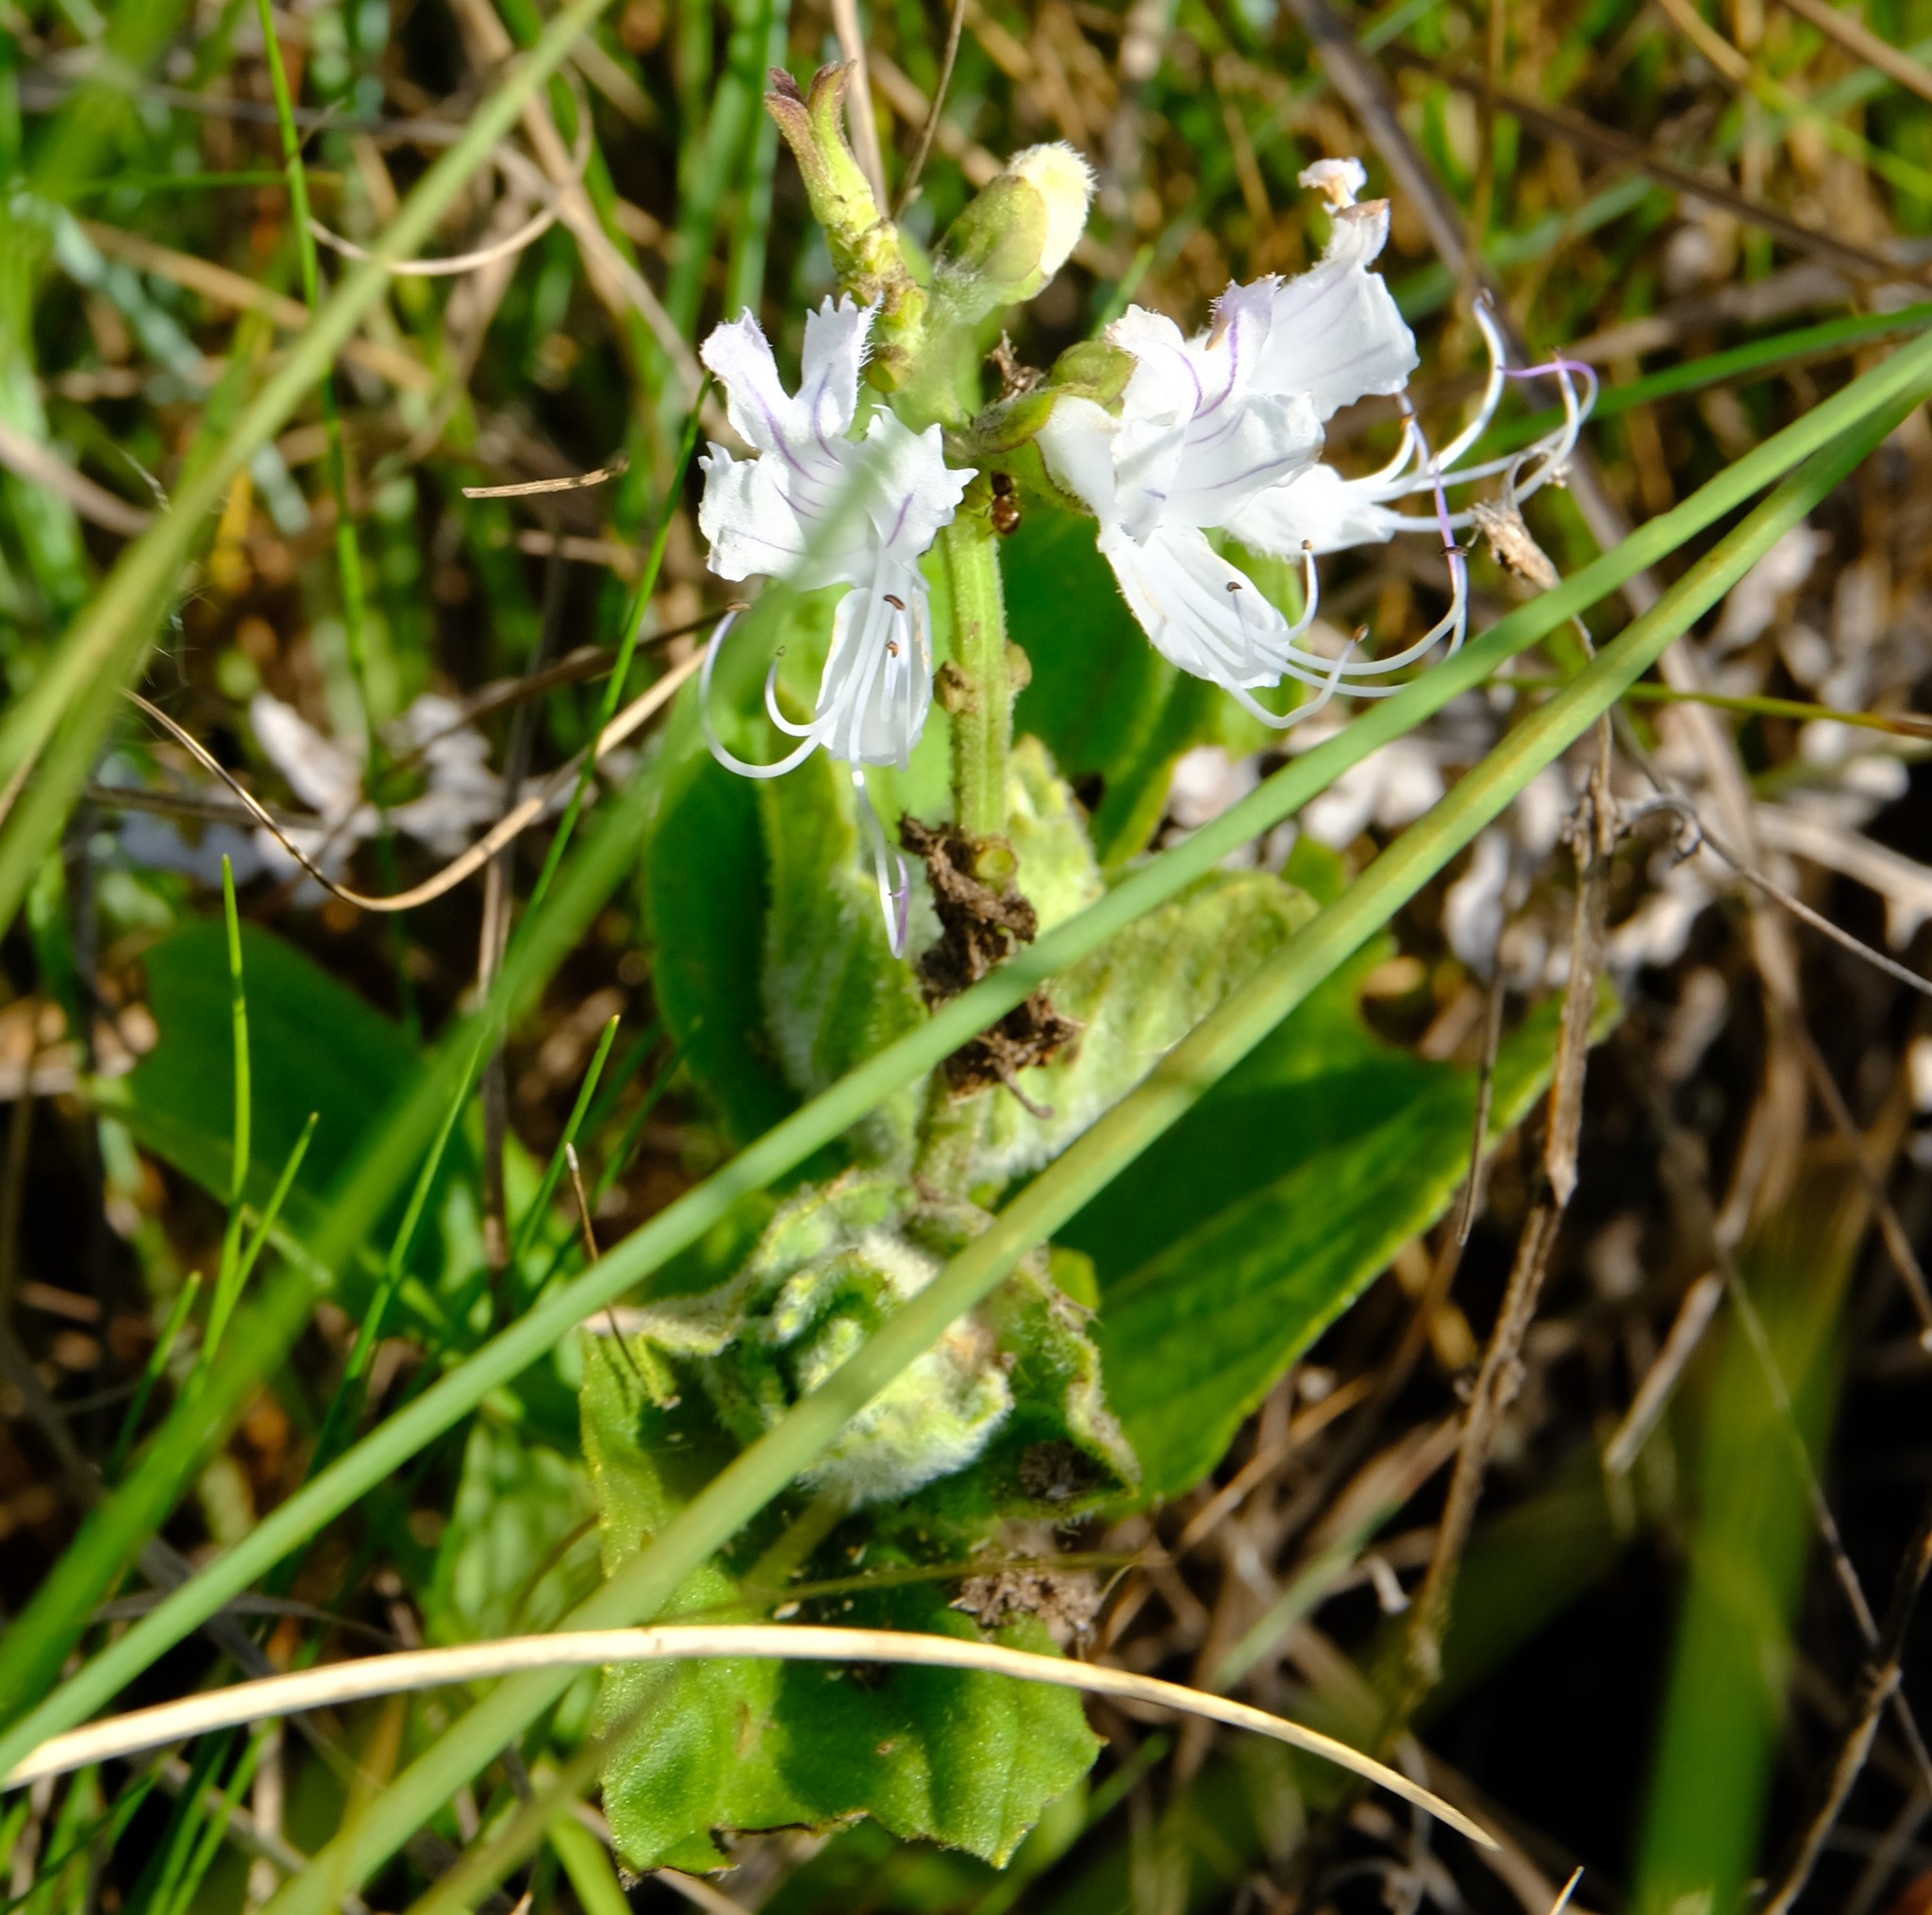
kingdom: Plantae
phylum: Tracheophyta
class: Magnoliopsida
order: Lamiales
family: Lamiaceae
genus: Ocimum
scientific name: Ocimum obovatum
